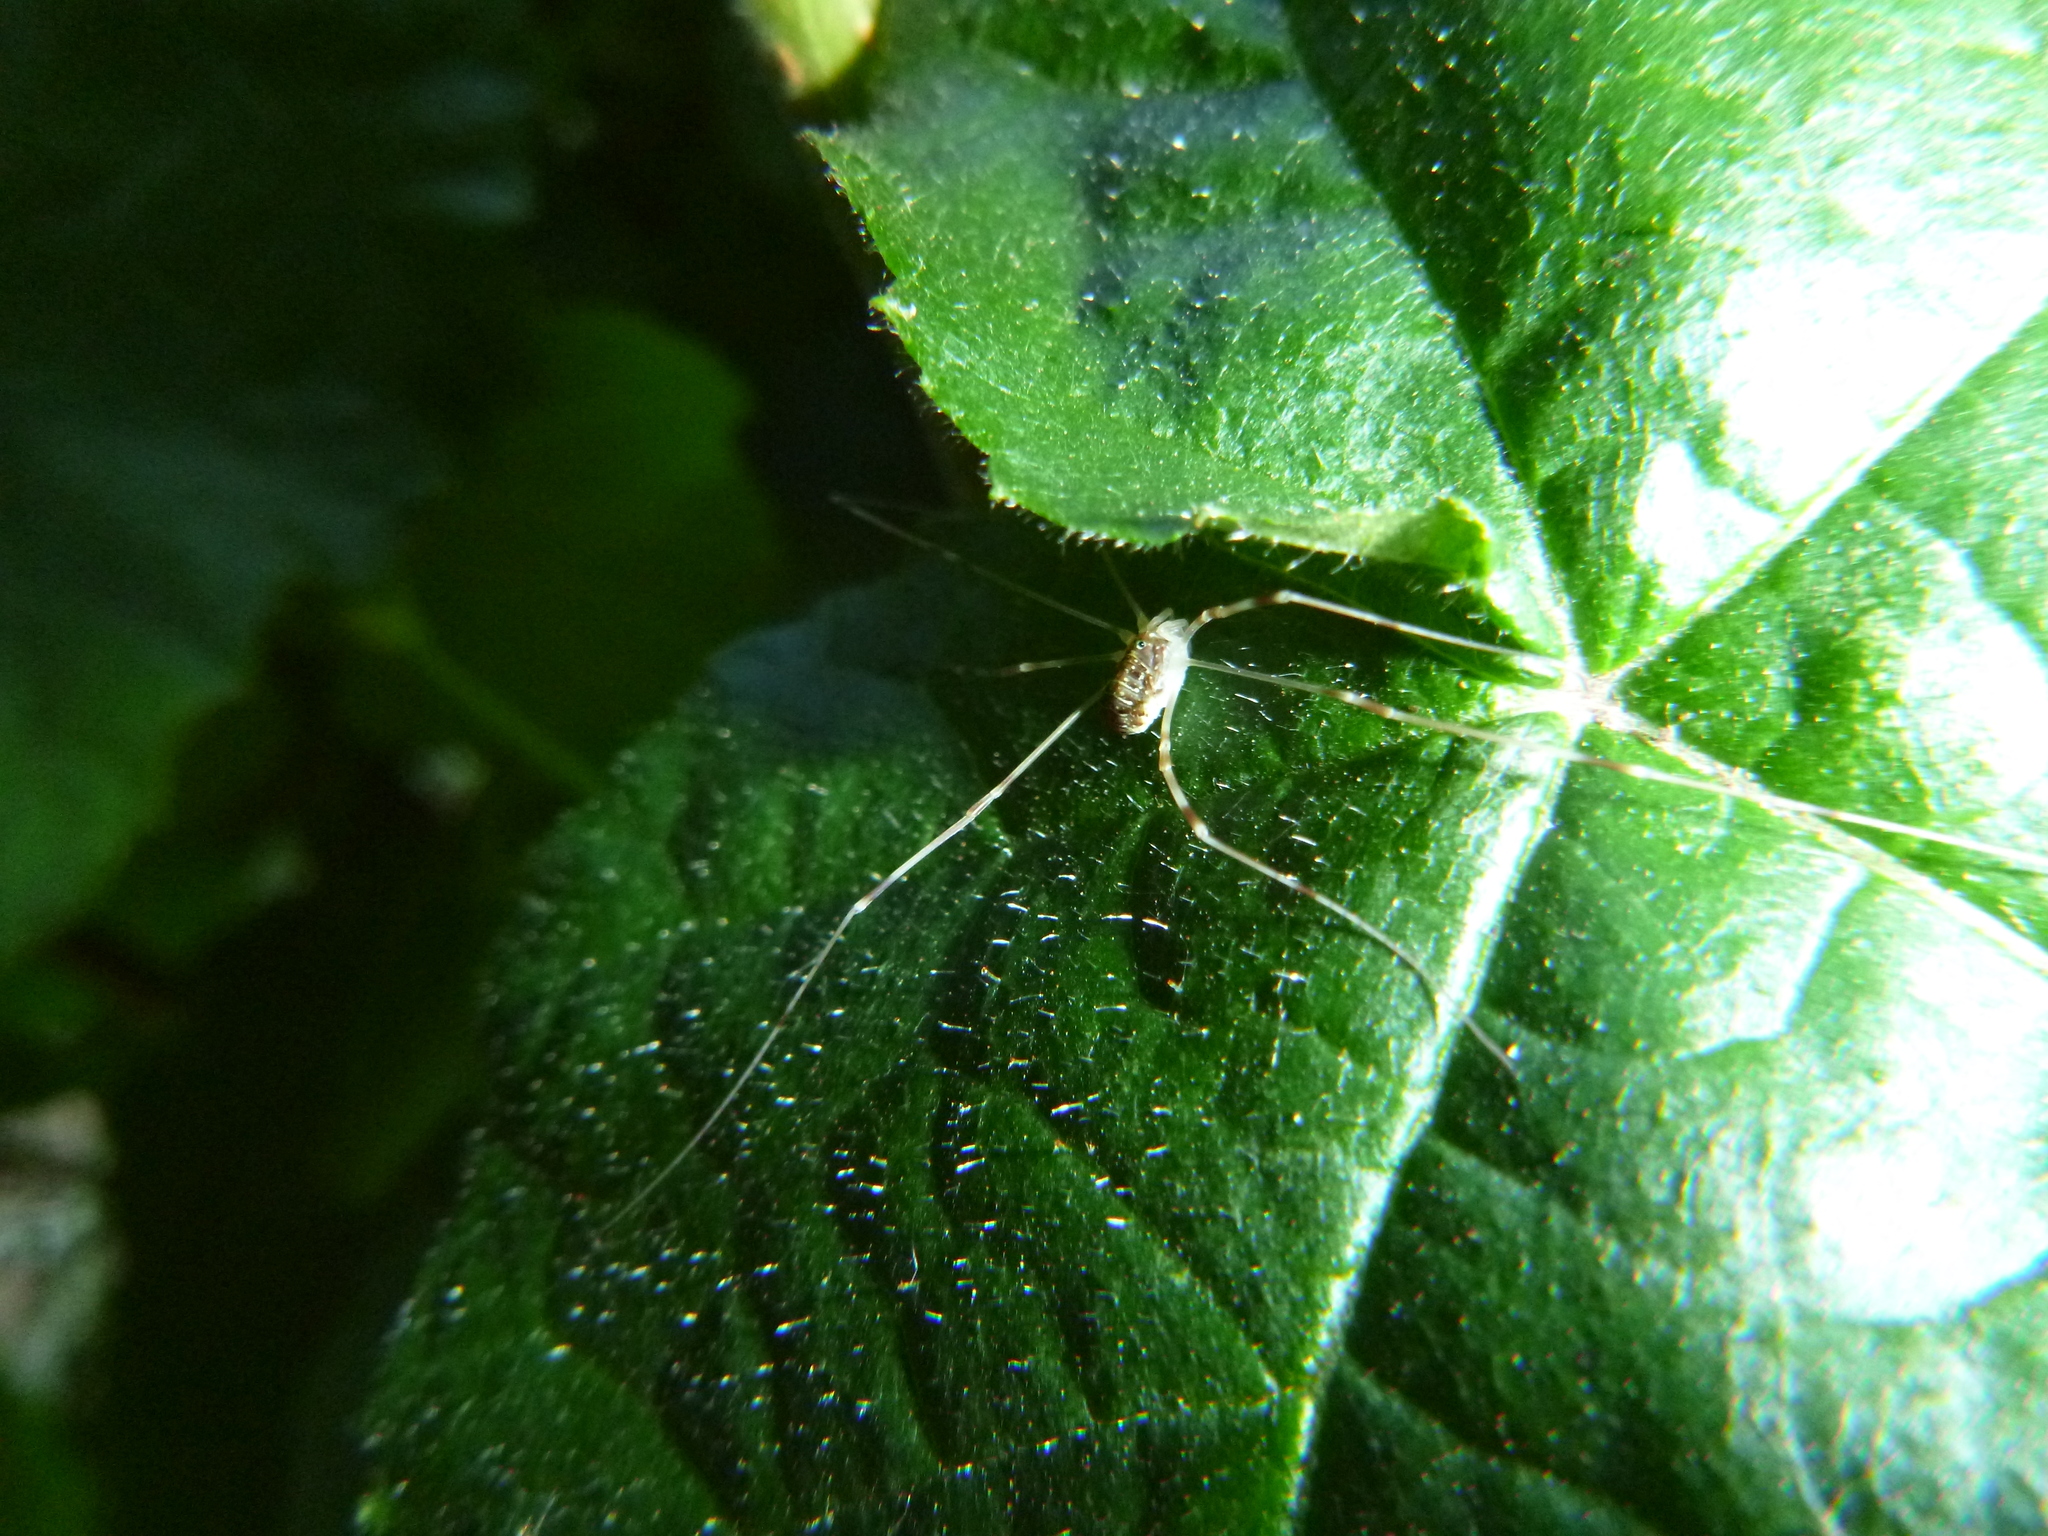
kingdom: Animalia
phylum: Arthropoda
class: Arachnida
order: Opiliones
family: Phalangiidae
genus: Opilio
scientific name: Opilio canestrinii
